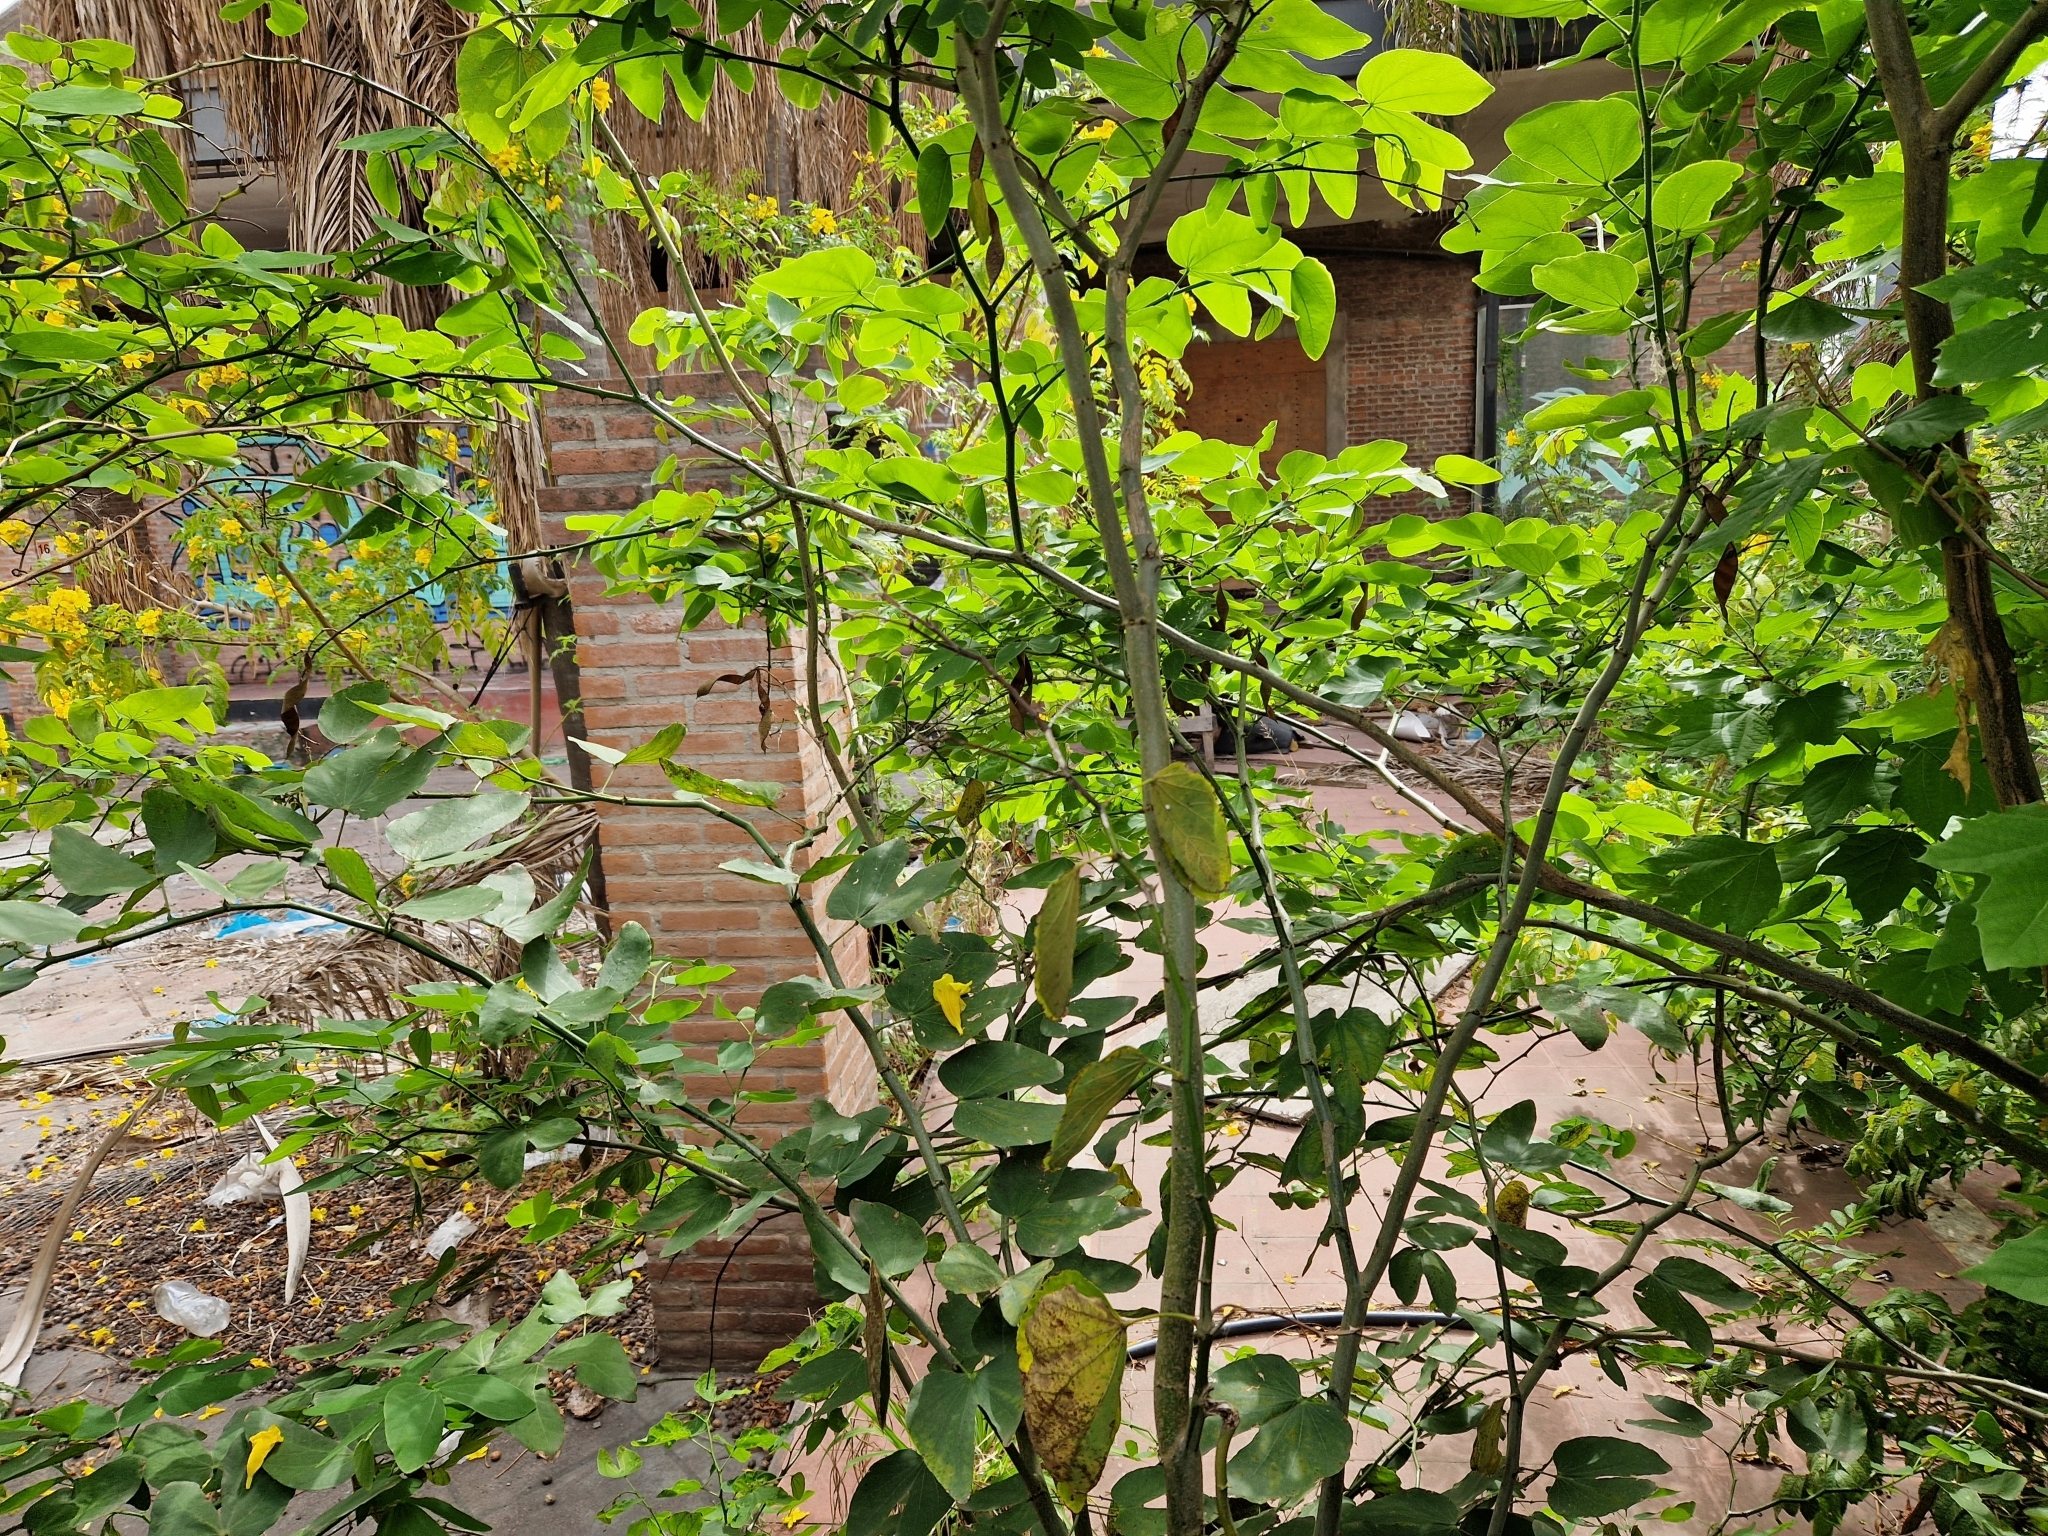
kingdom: Plantae
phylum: Tracheophyta
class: Magnoliopsida
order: Fabales
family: Fabaceae
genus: Bauhinia
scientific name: Bauhinia forficata
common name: Orchid tree
